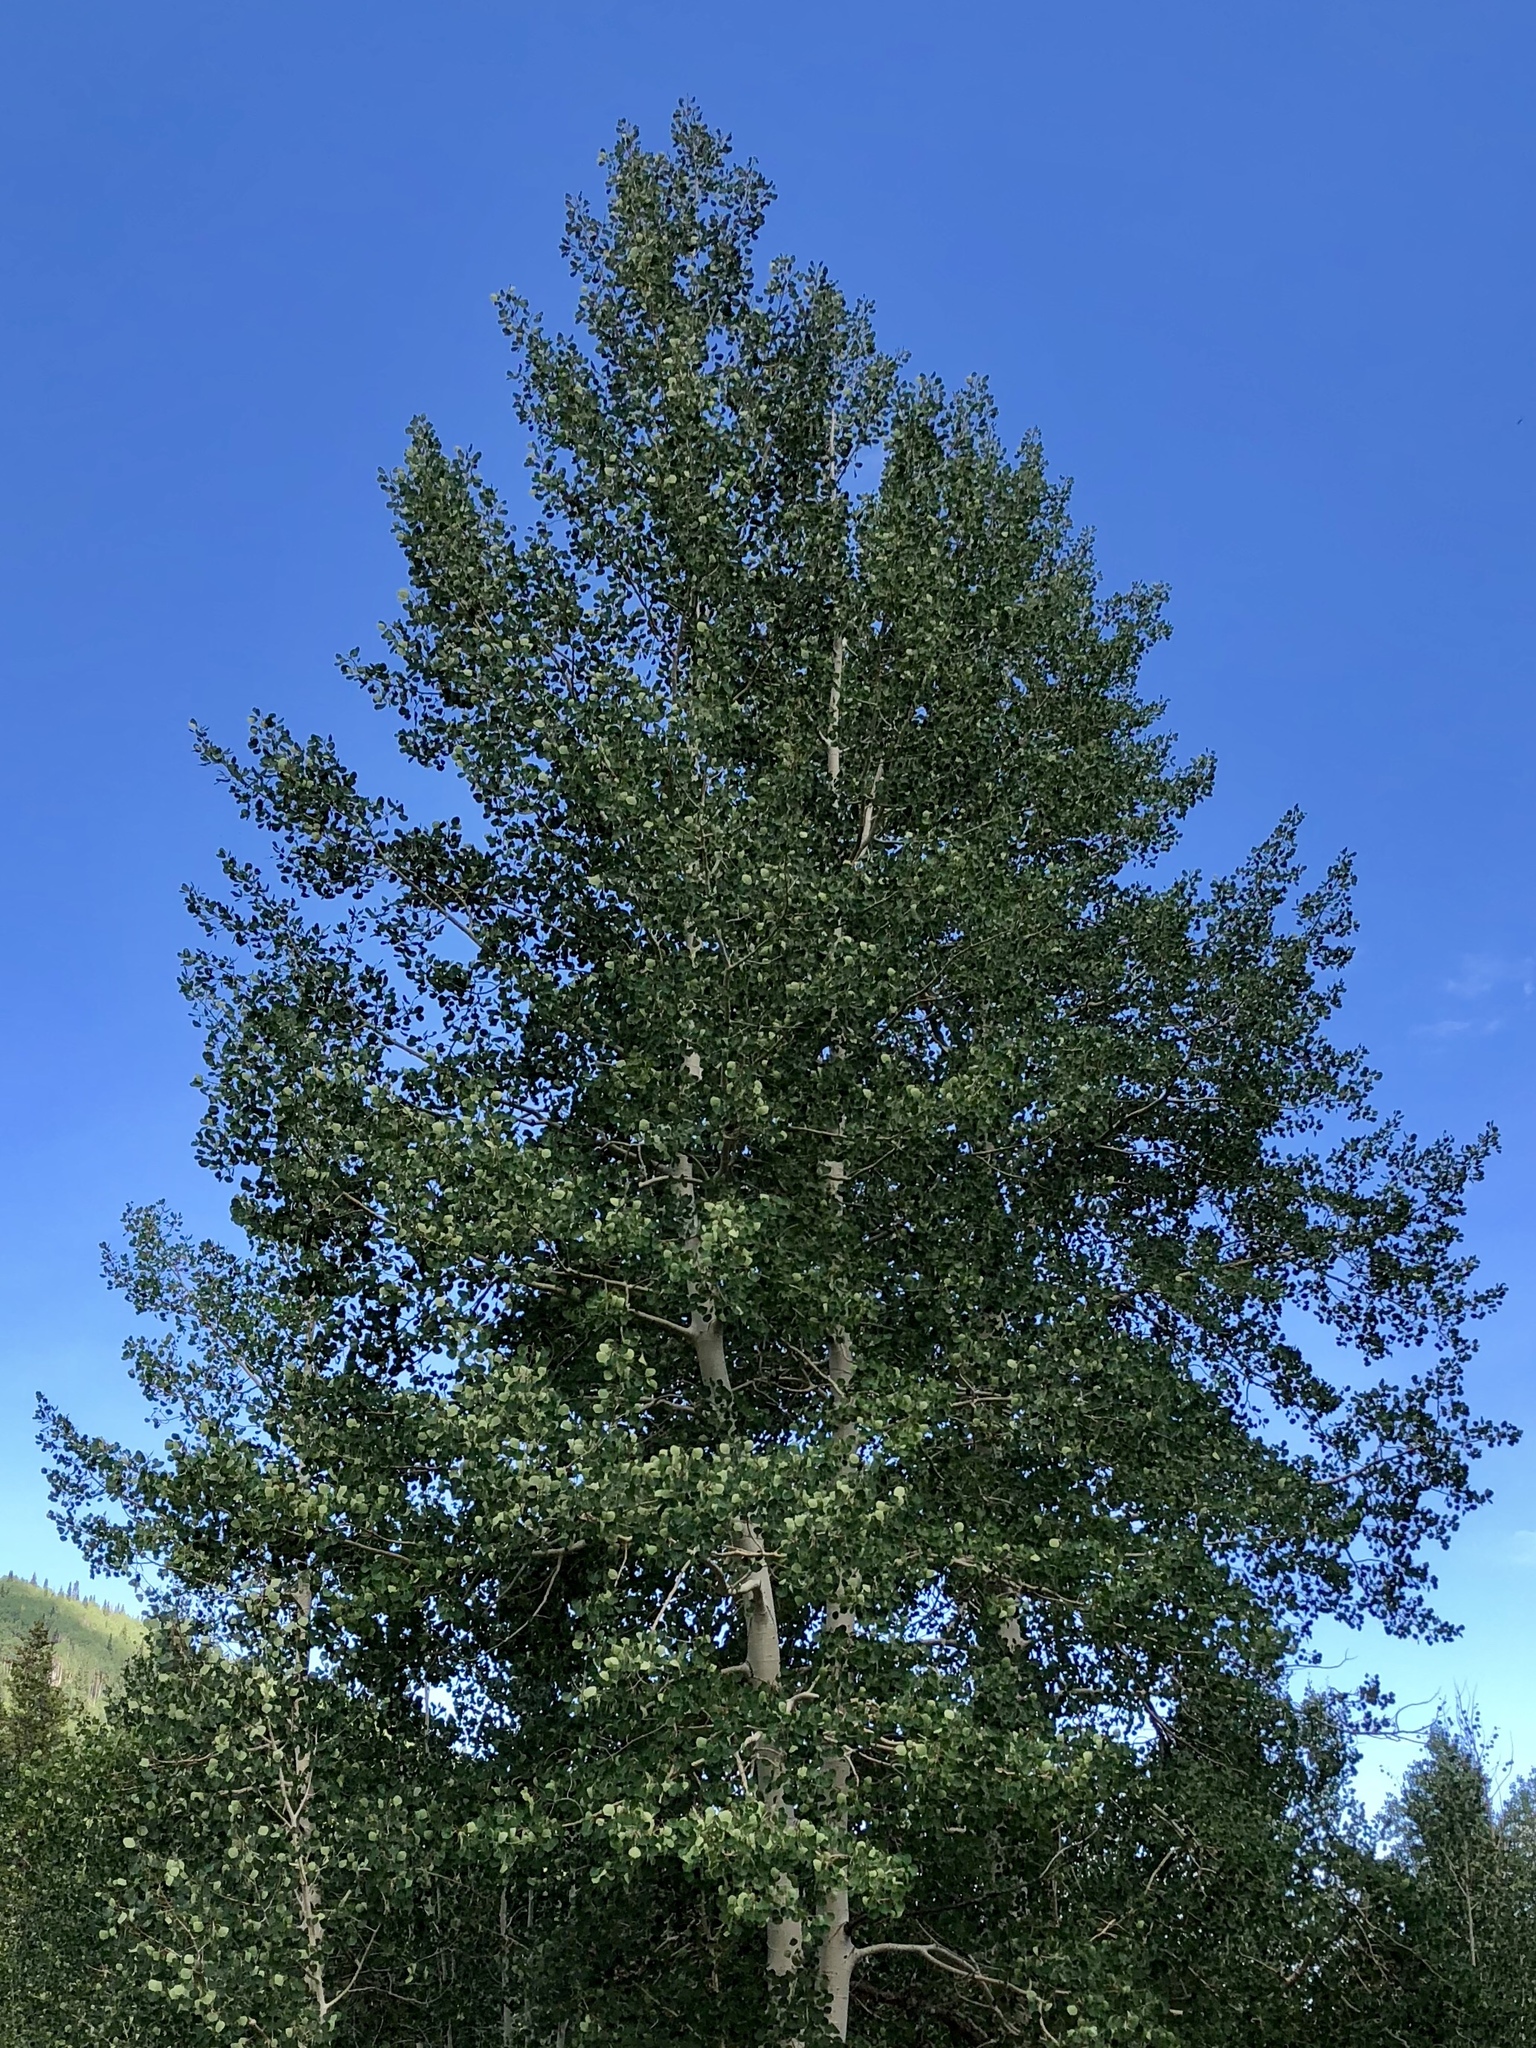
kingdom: Plantae
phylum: Tracheophyta
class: Magnoliopsida
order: Malpighiales
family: Salicaceae
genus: Populus
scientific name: Populus tremuloides
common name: Quaking aspen
